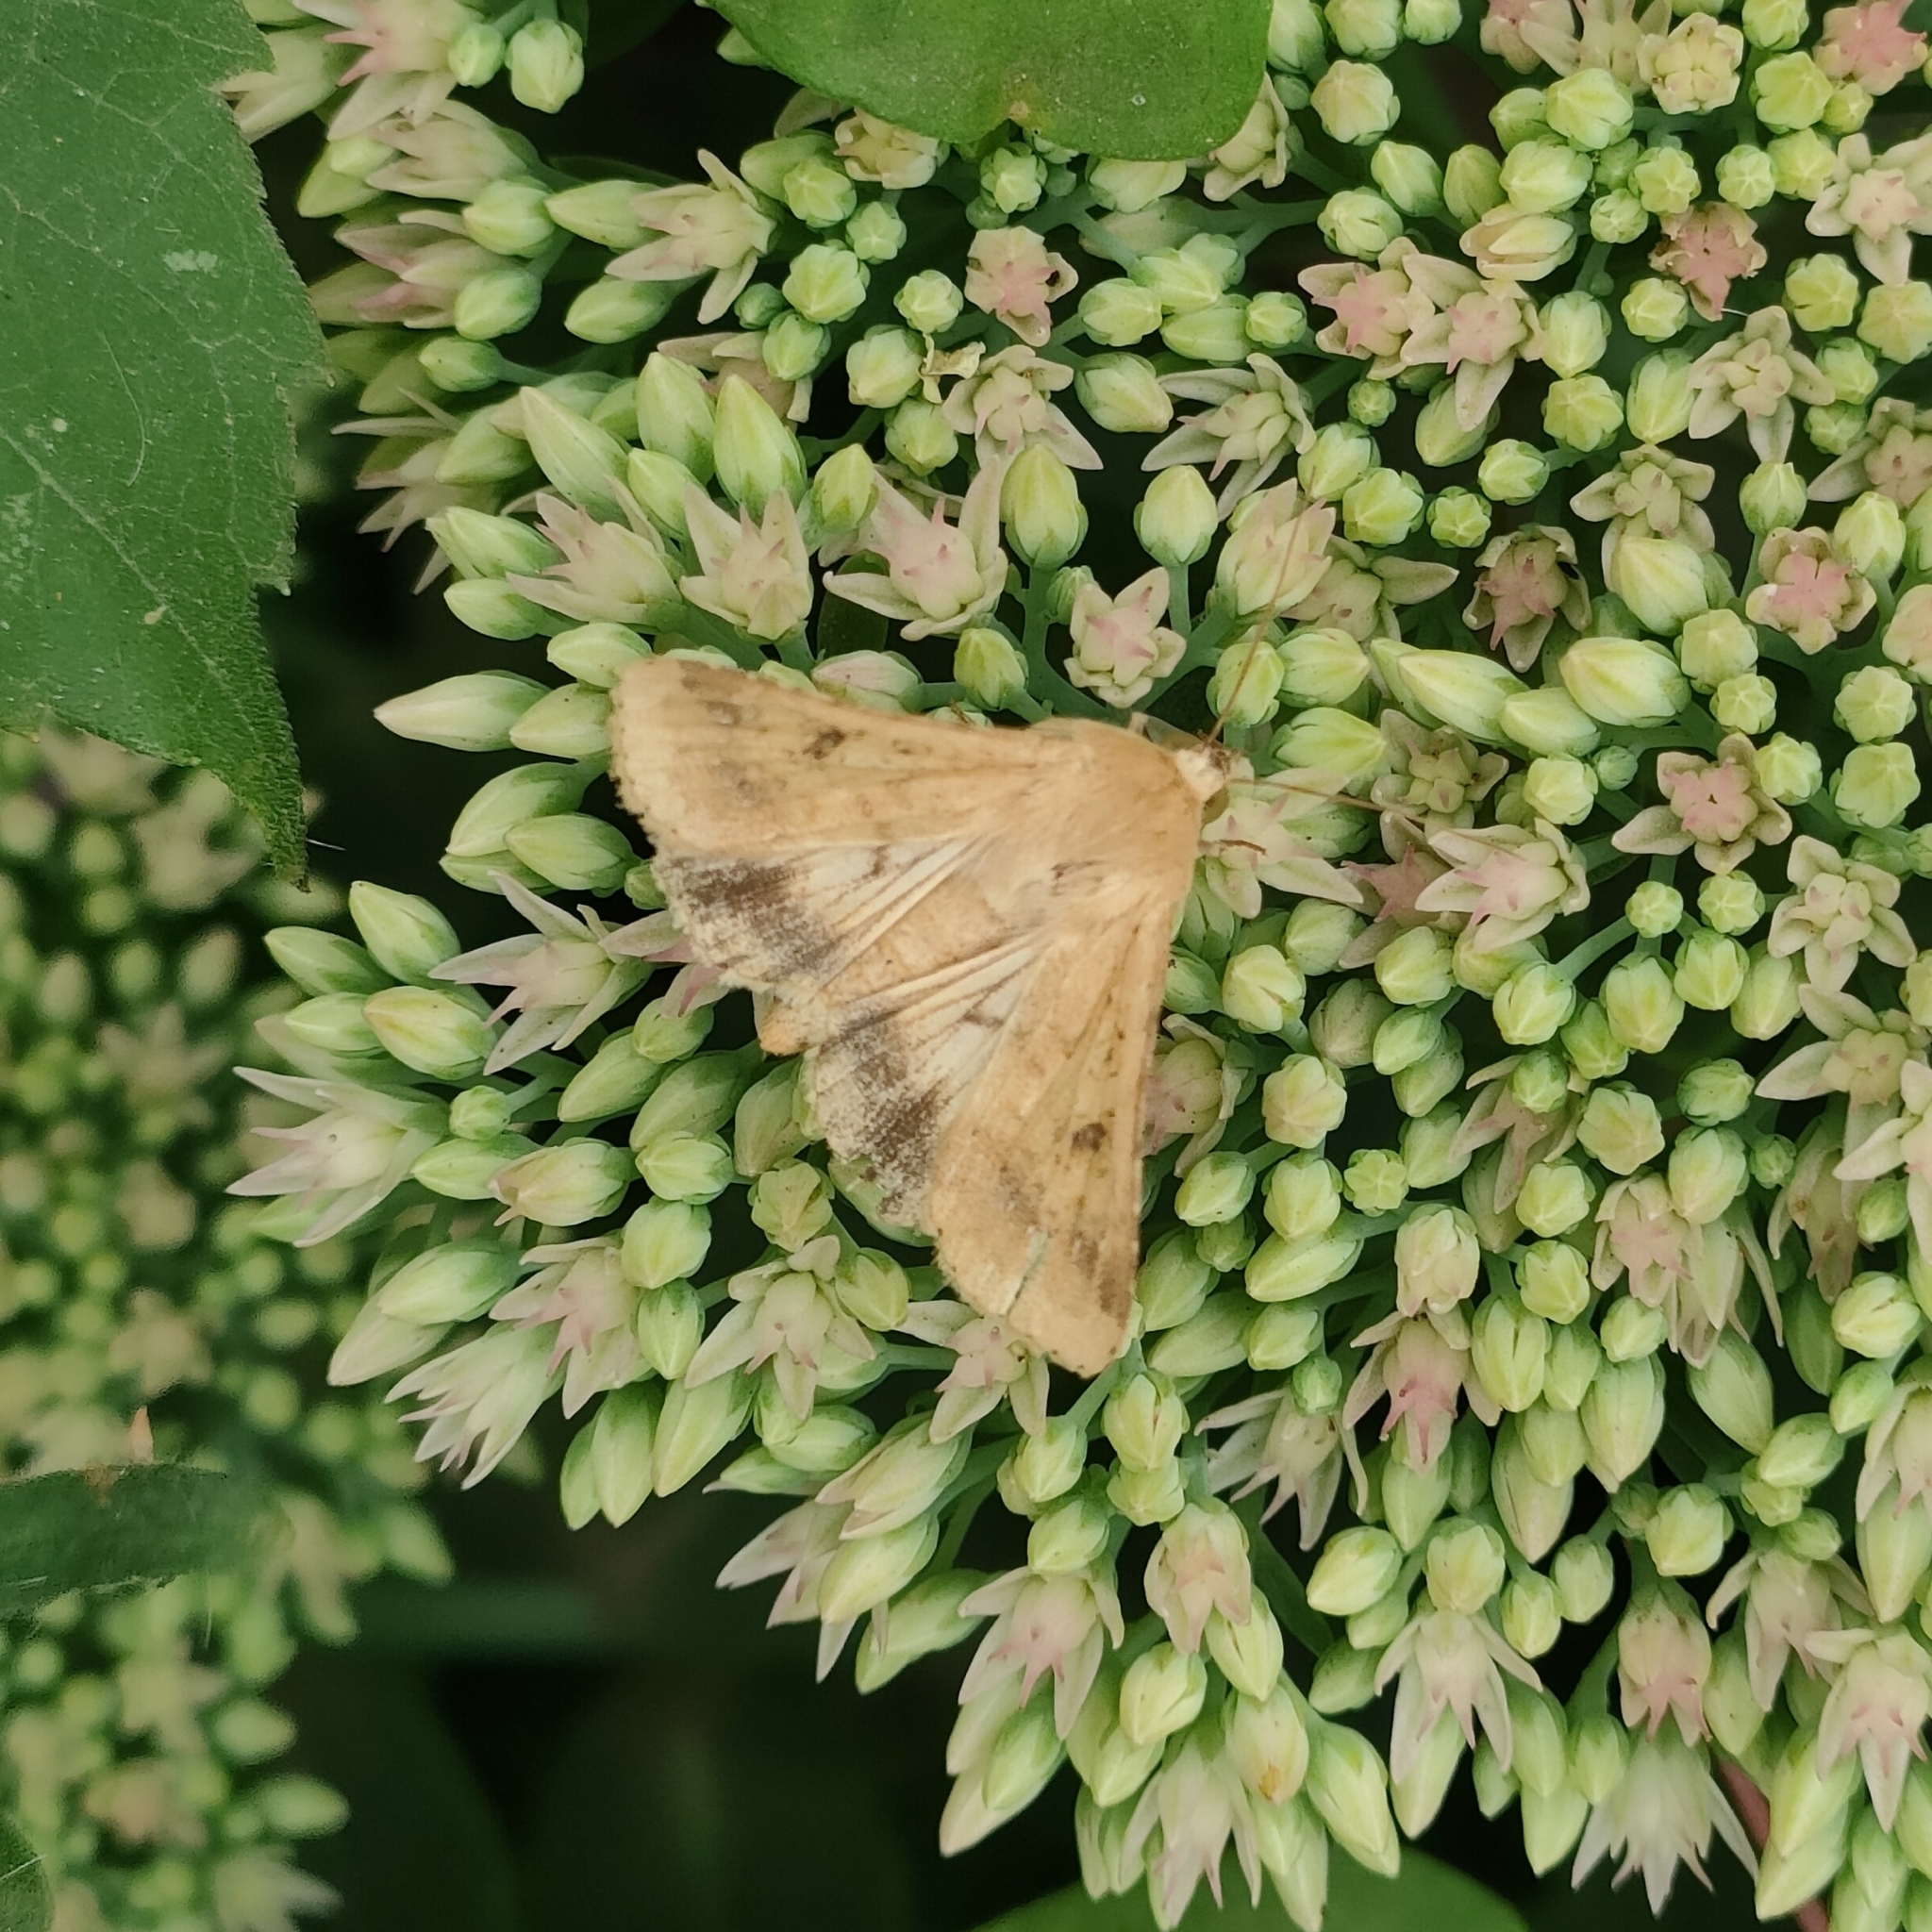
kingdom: Animalia
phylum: Arthropoda
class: Insecta
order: Lepidoptera
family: Noctuidae
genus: Helicoverpa
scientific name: Helicoverpa armigera
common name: Cotton bollworm
